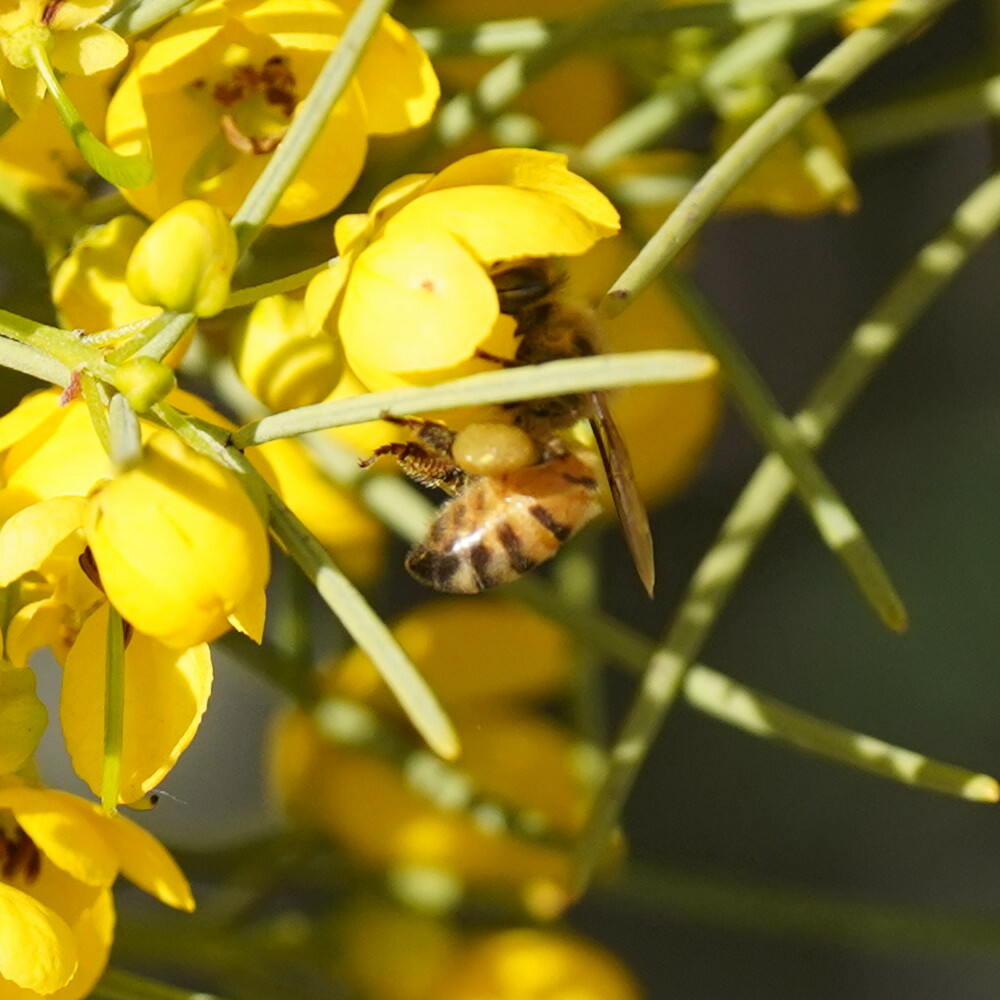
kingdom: Animalia
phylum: Arthropoda
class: Insecta
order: Hymenoptera
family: Apidae
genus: Apis
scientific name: Apis mellifera
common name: Honey bee
